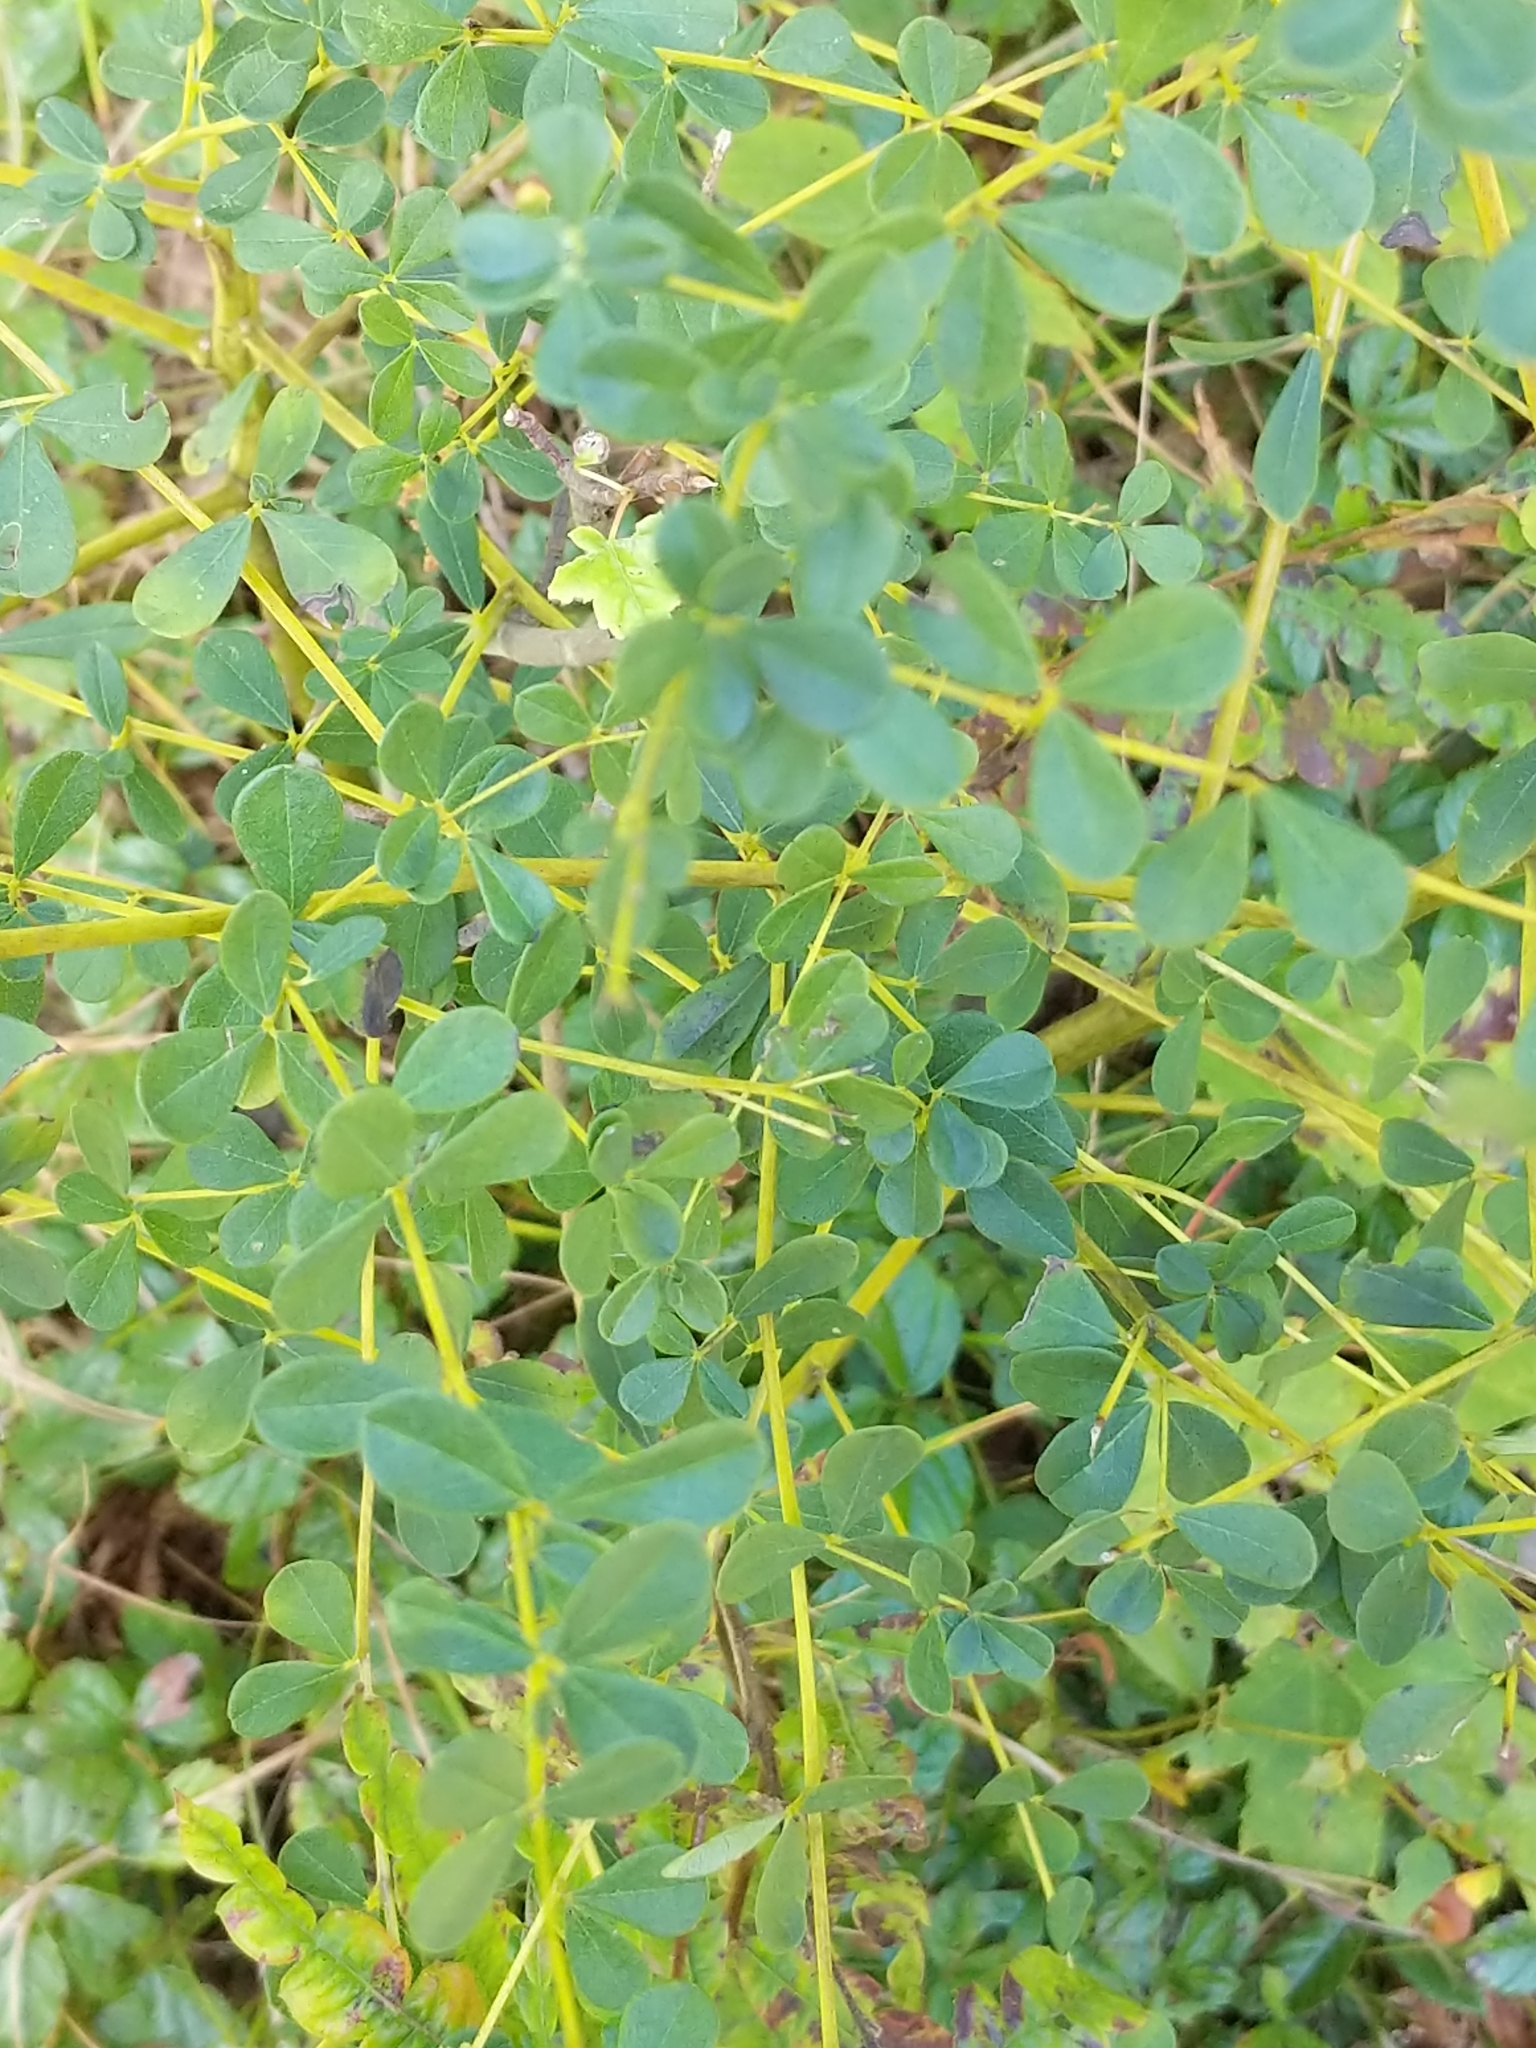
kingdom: Plantae
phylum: Tracheophyta
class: Magnoliopsida
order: Fabales
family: Fabaceae
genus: Baptisia
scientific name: Baptisia tinctoria
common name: Wild indigo
